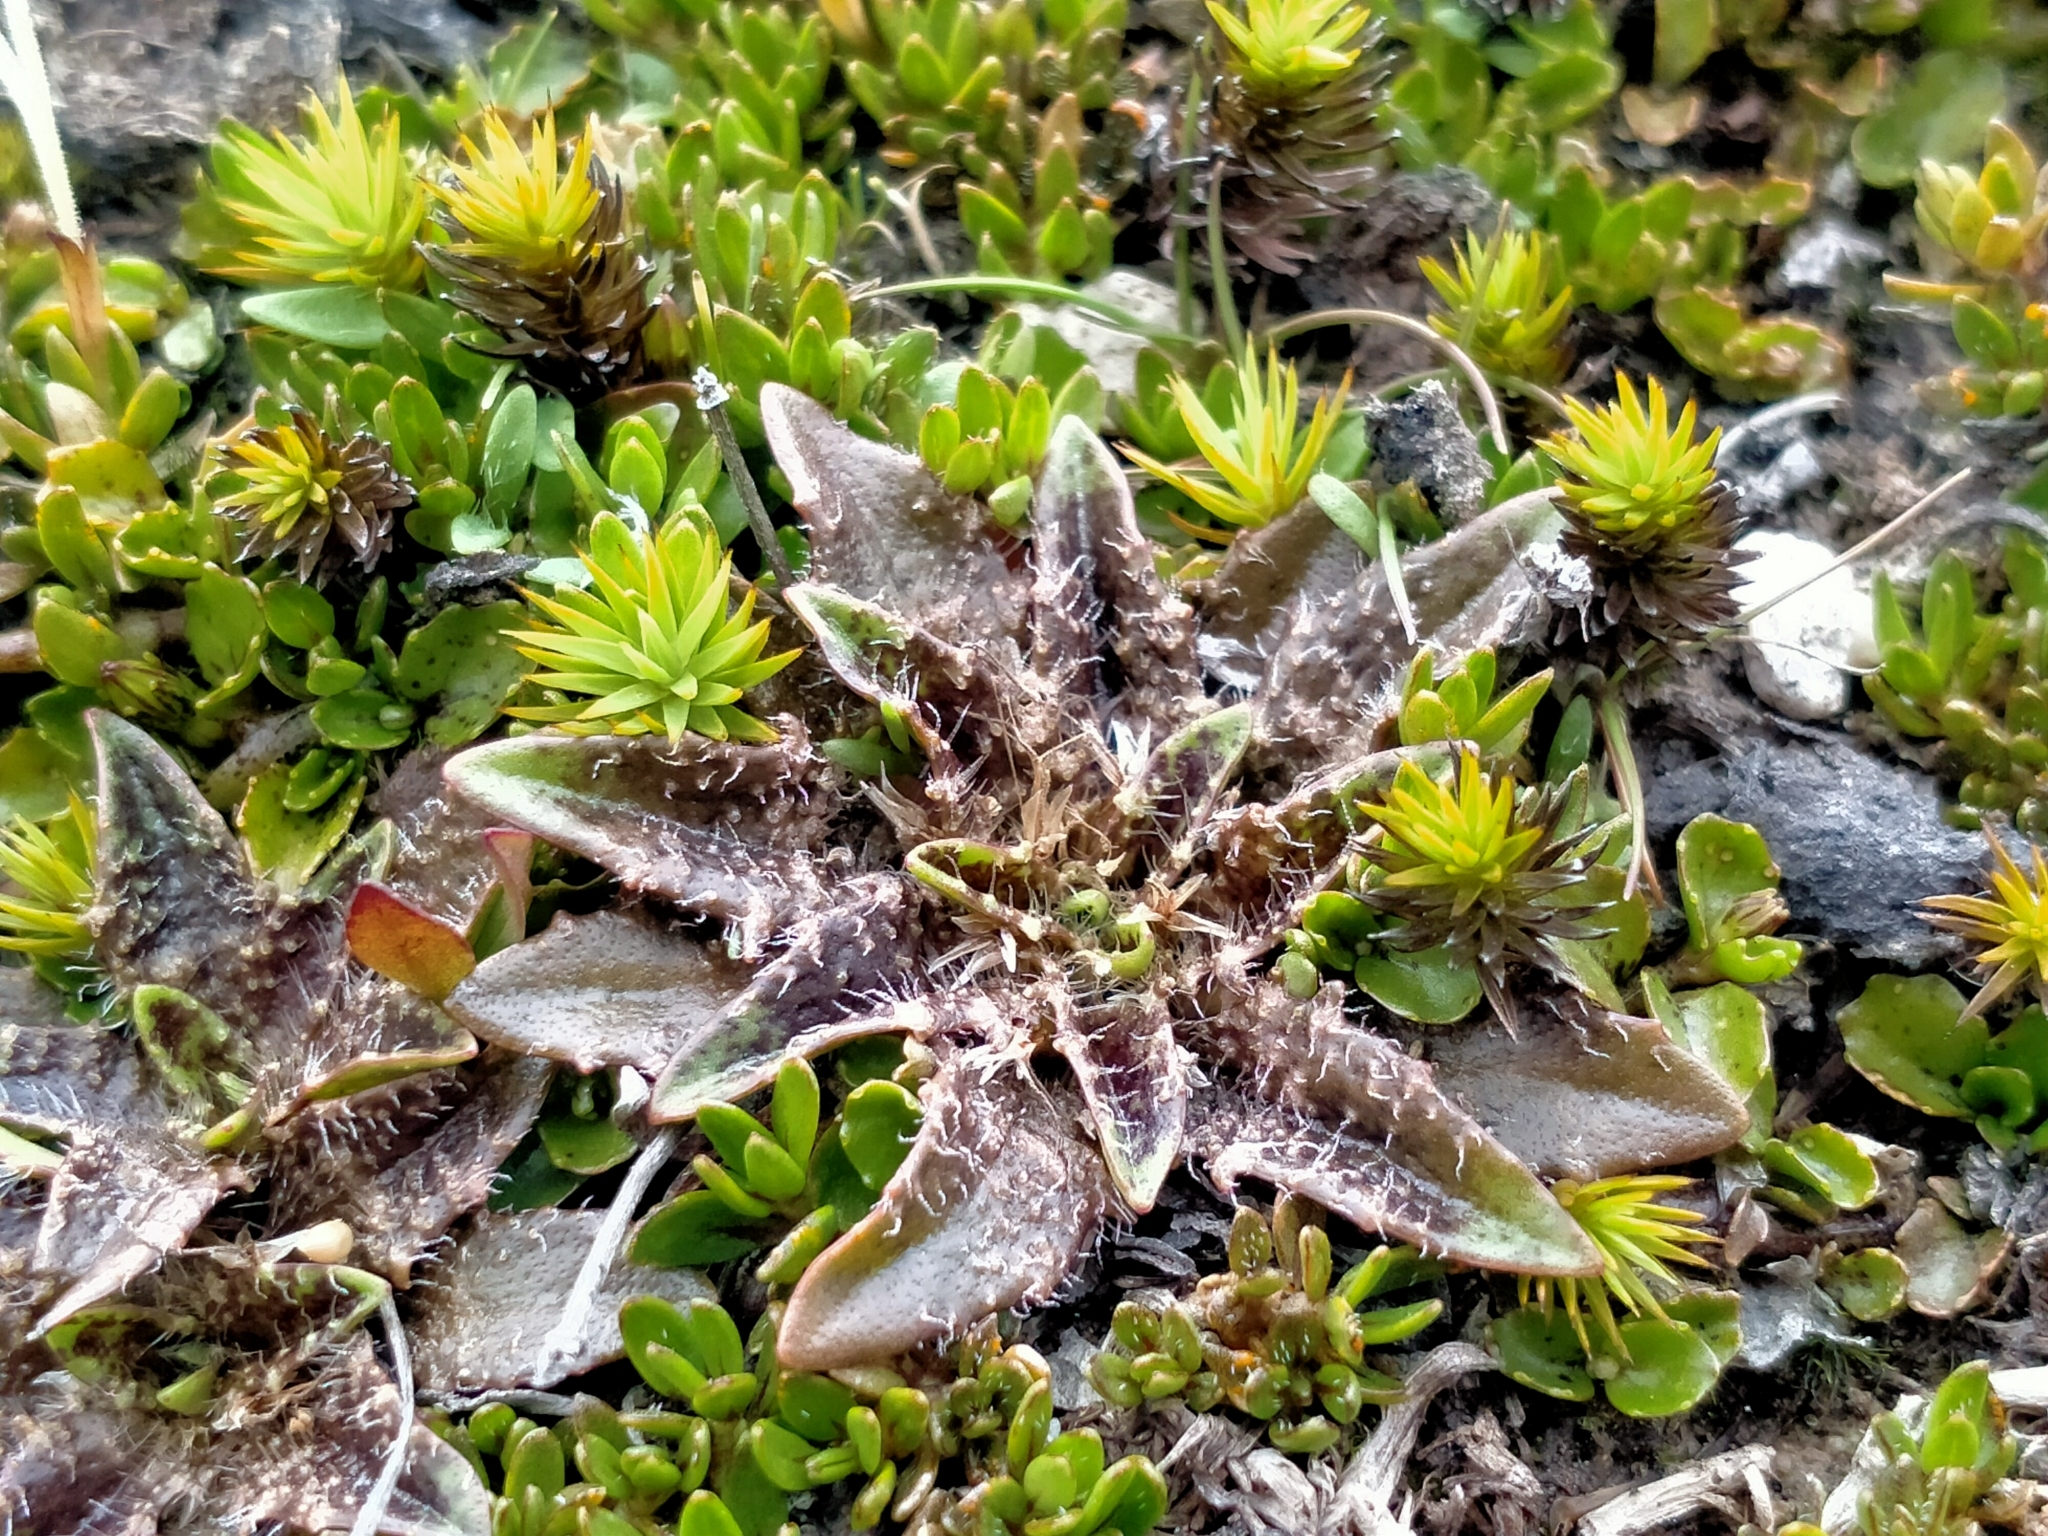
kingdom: Plantae
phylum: Tracheophyta
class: Magnoliopsida
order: Lamiales
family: Plantaginaceae
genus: Plantago
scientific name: Plantago triandra
